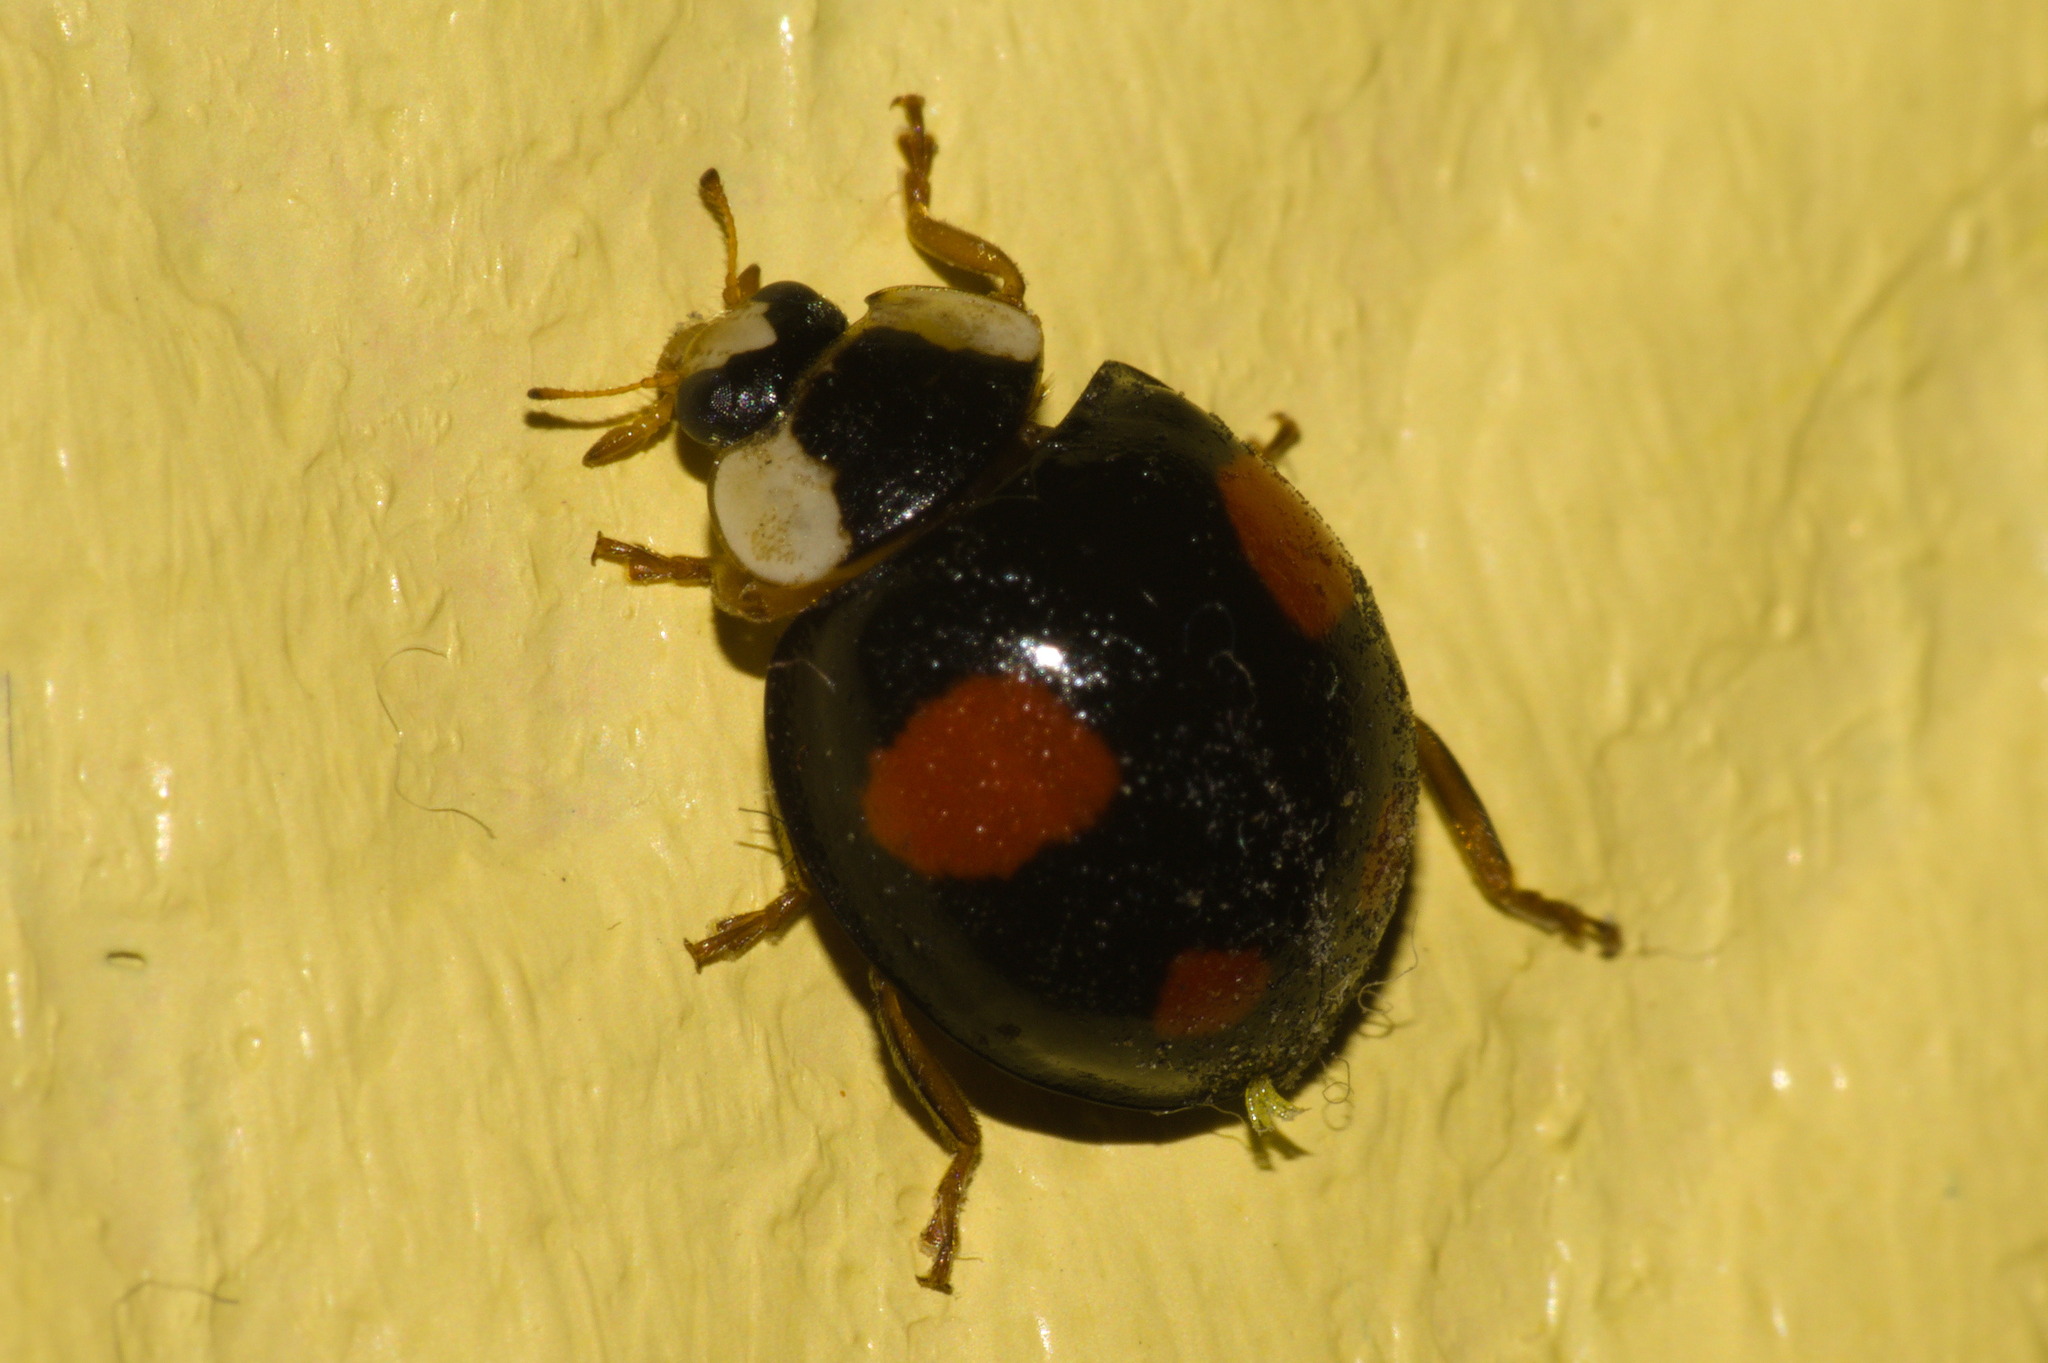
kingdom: Animalia
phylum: Arthropoda
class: Insecta
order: Coleoptera
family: Coccinellidae
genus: Harmonia
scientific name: Harmonia axyridis
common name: Harlequin ladybird
